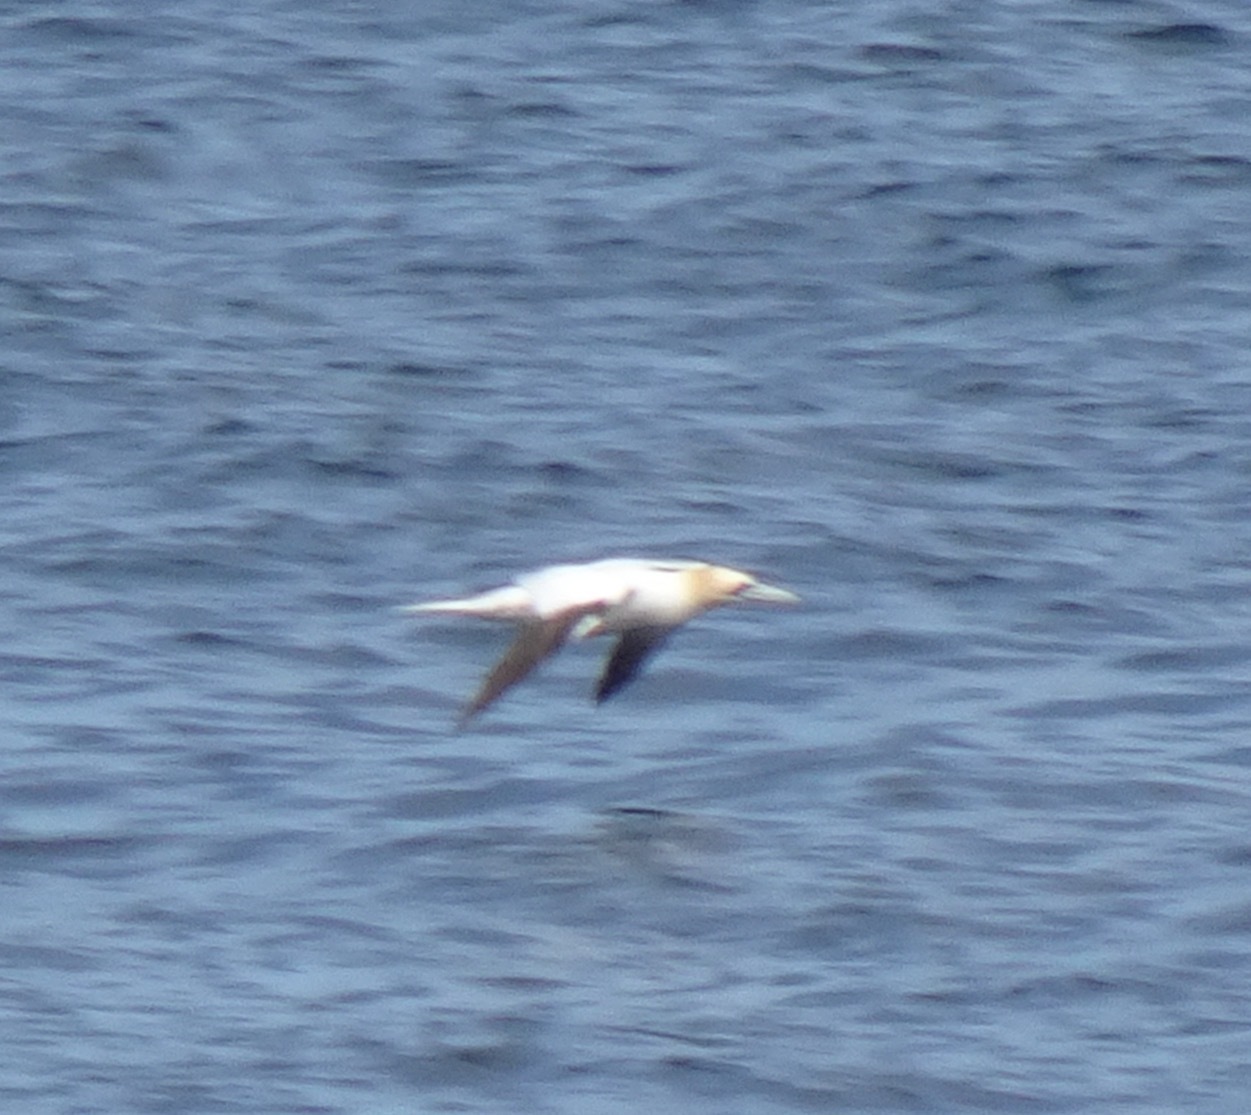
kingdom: Animalia
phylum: Chordata
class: Aves
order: Suliformes
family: Sulidae
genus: Morus
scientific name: Morus bassanus
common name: Northern gannet
